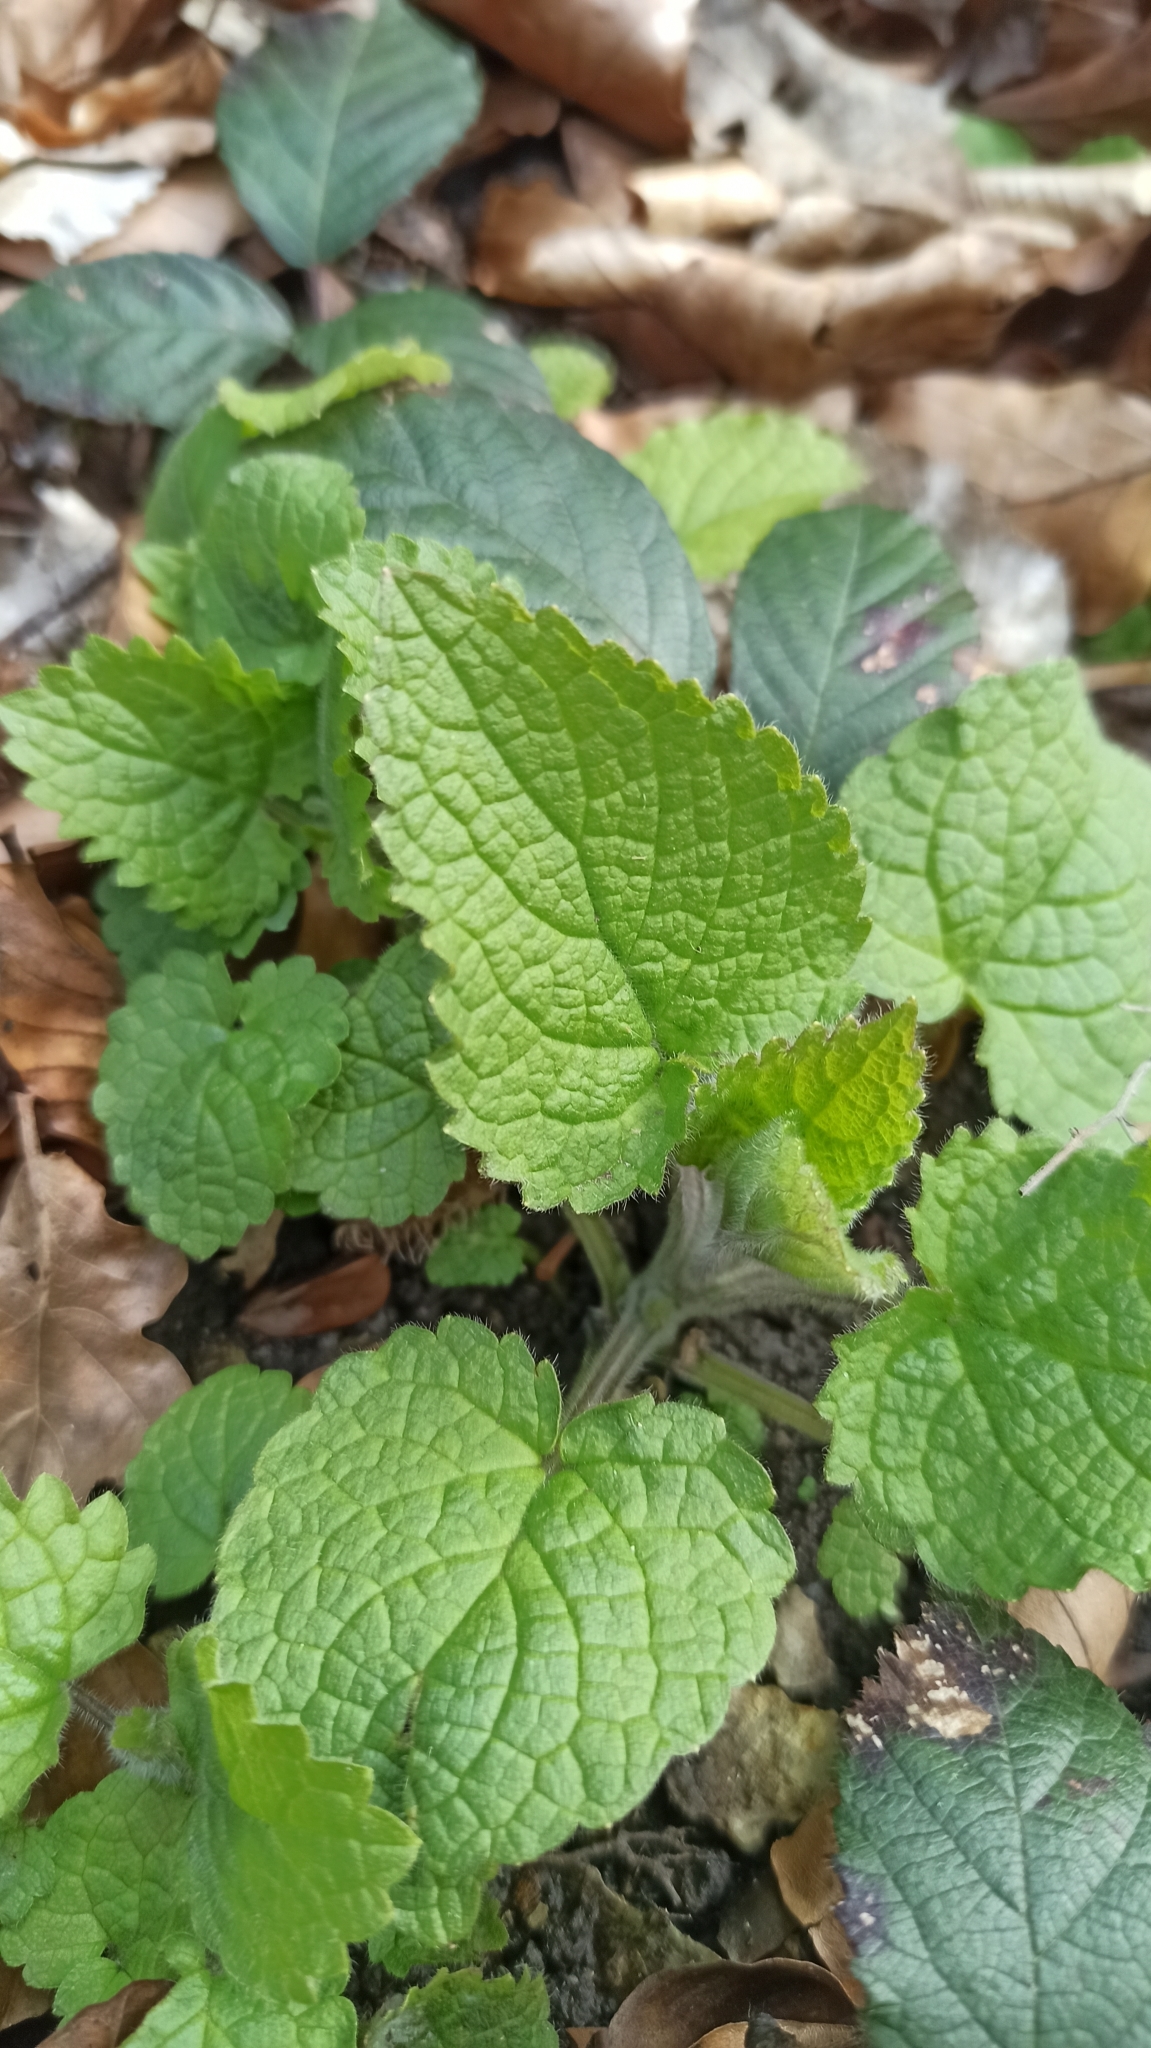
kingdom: Plantae
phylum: Tracheophyta
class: Magnoliopsida
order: Lamiales
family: Lamiaceae
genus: Stachys
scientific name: Stachys sylvatica
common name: Hedge woundwort
